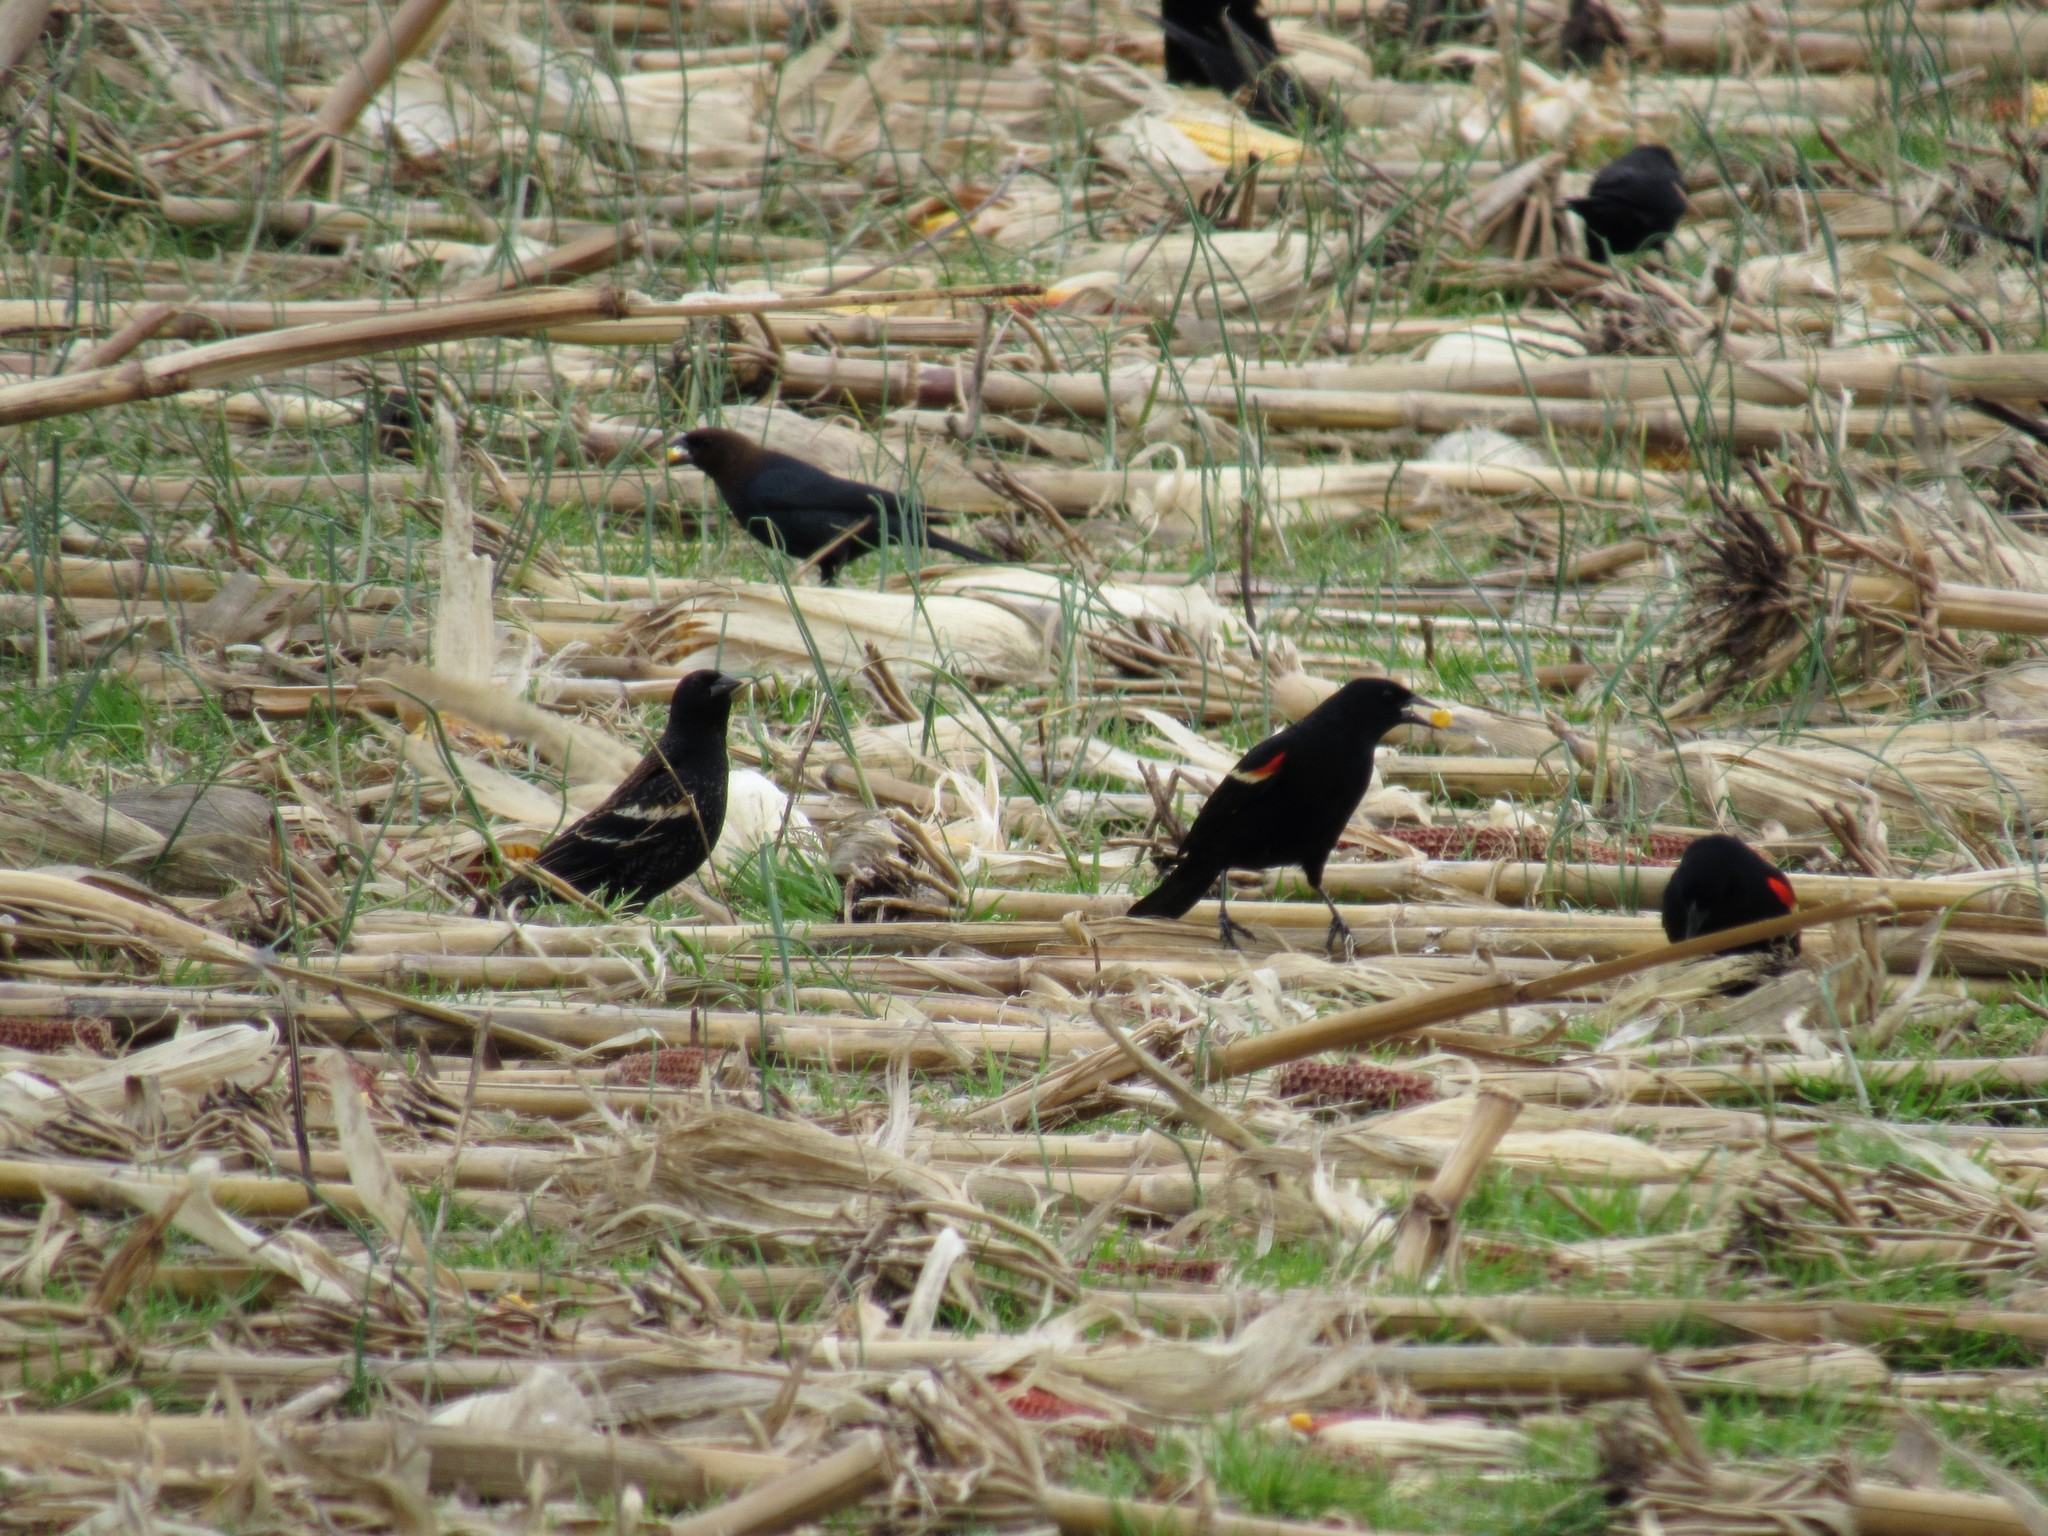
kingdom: Animalia
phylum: Chordata
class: Aves
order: Passeriformes
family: Icteridae
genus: Molothrus
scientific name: Molothrus ater
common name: Brown-headed cowbird
